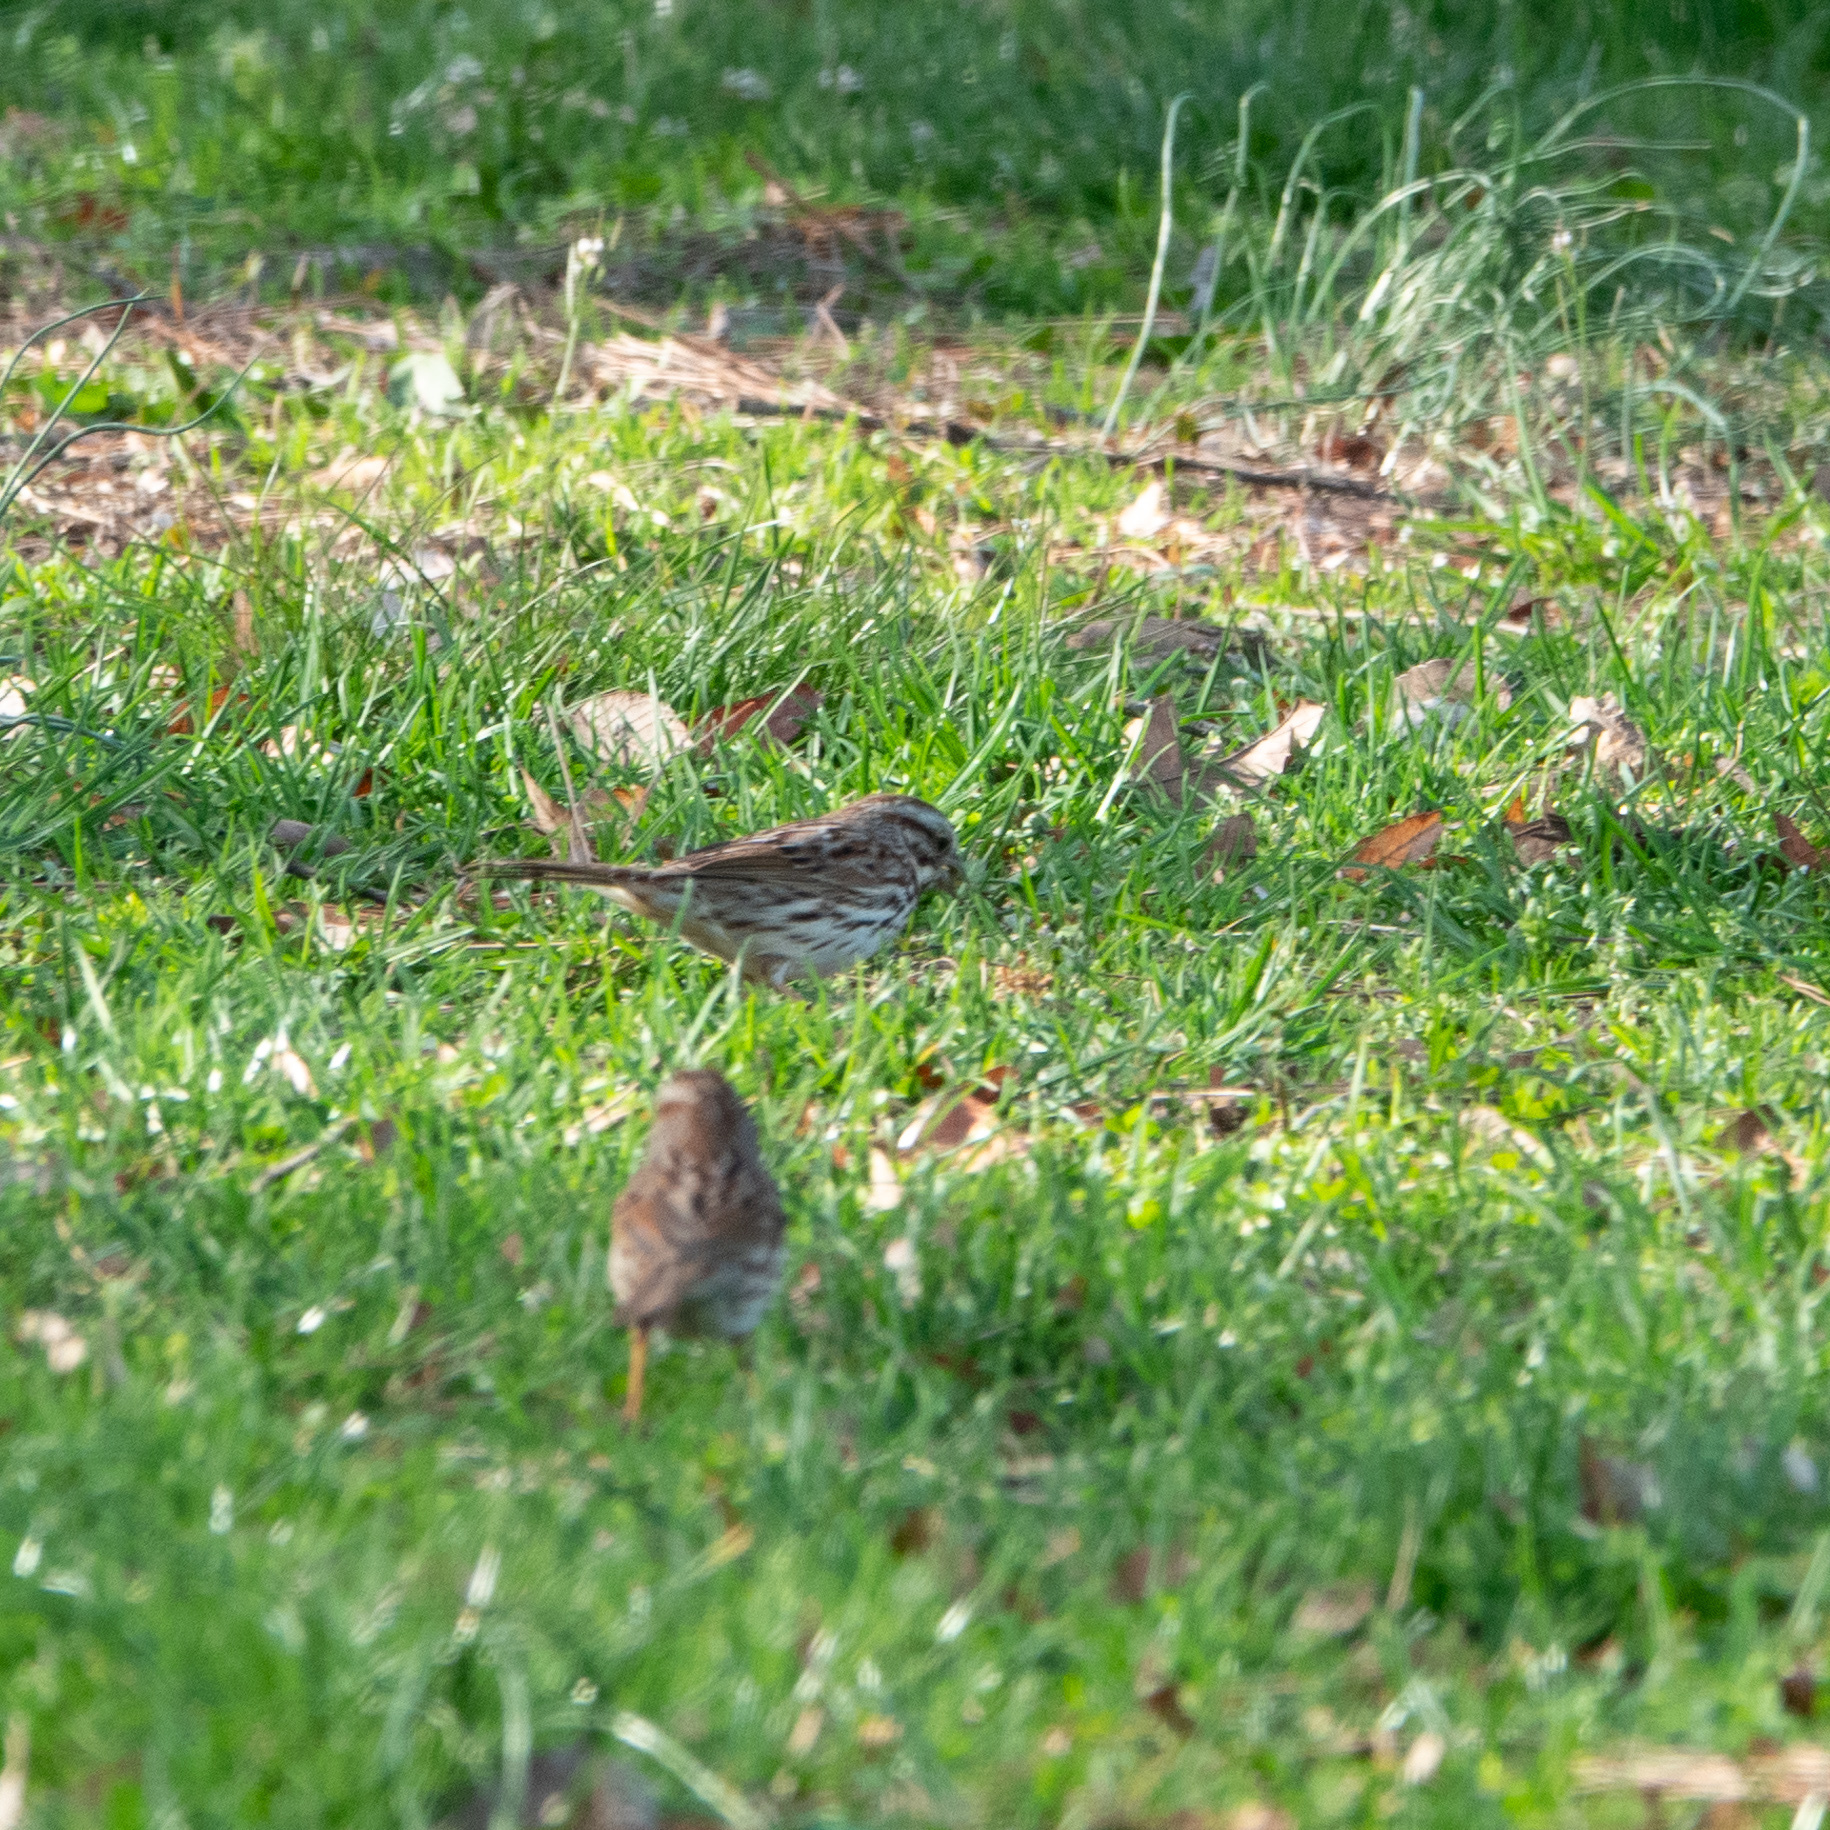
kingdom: Animalia
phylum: Chordata
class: Aves
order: Passeriformes
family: Passerellidae
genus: Melospiza
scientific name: Melospiza melodia
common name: Song sparrow
